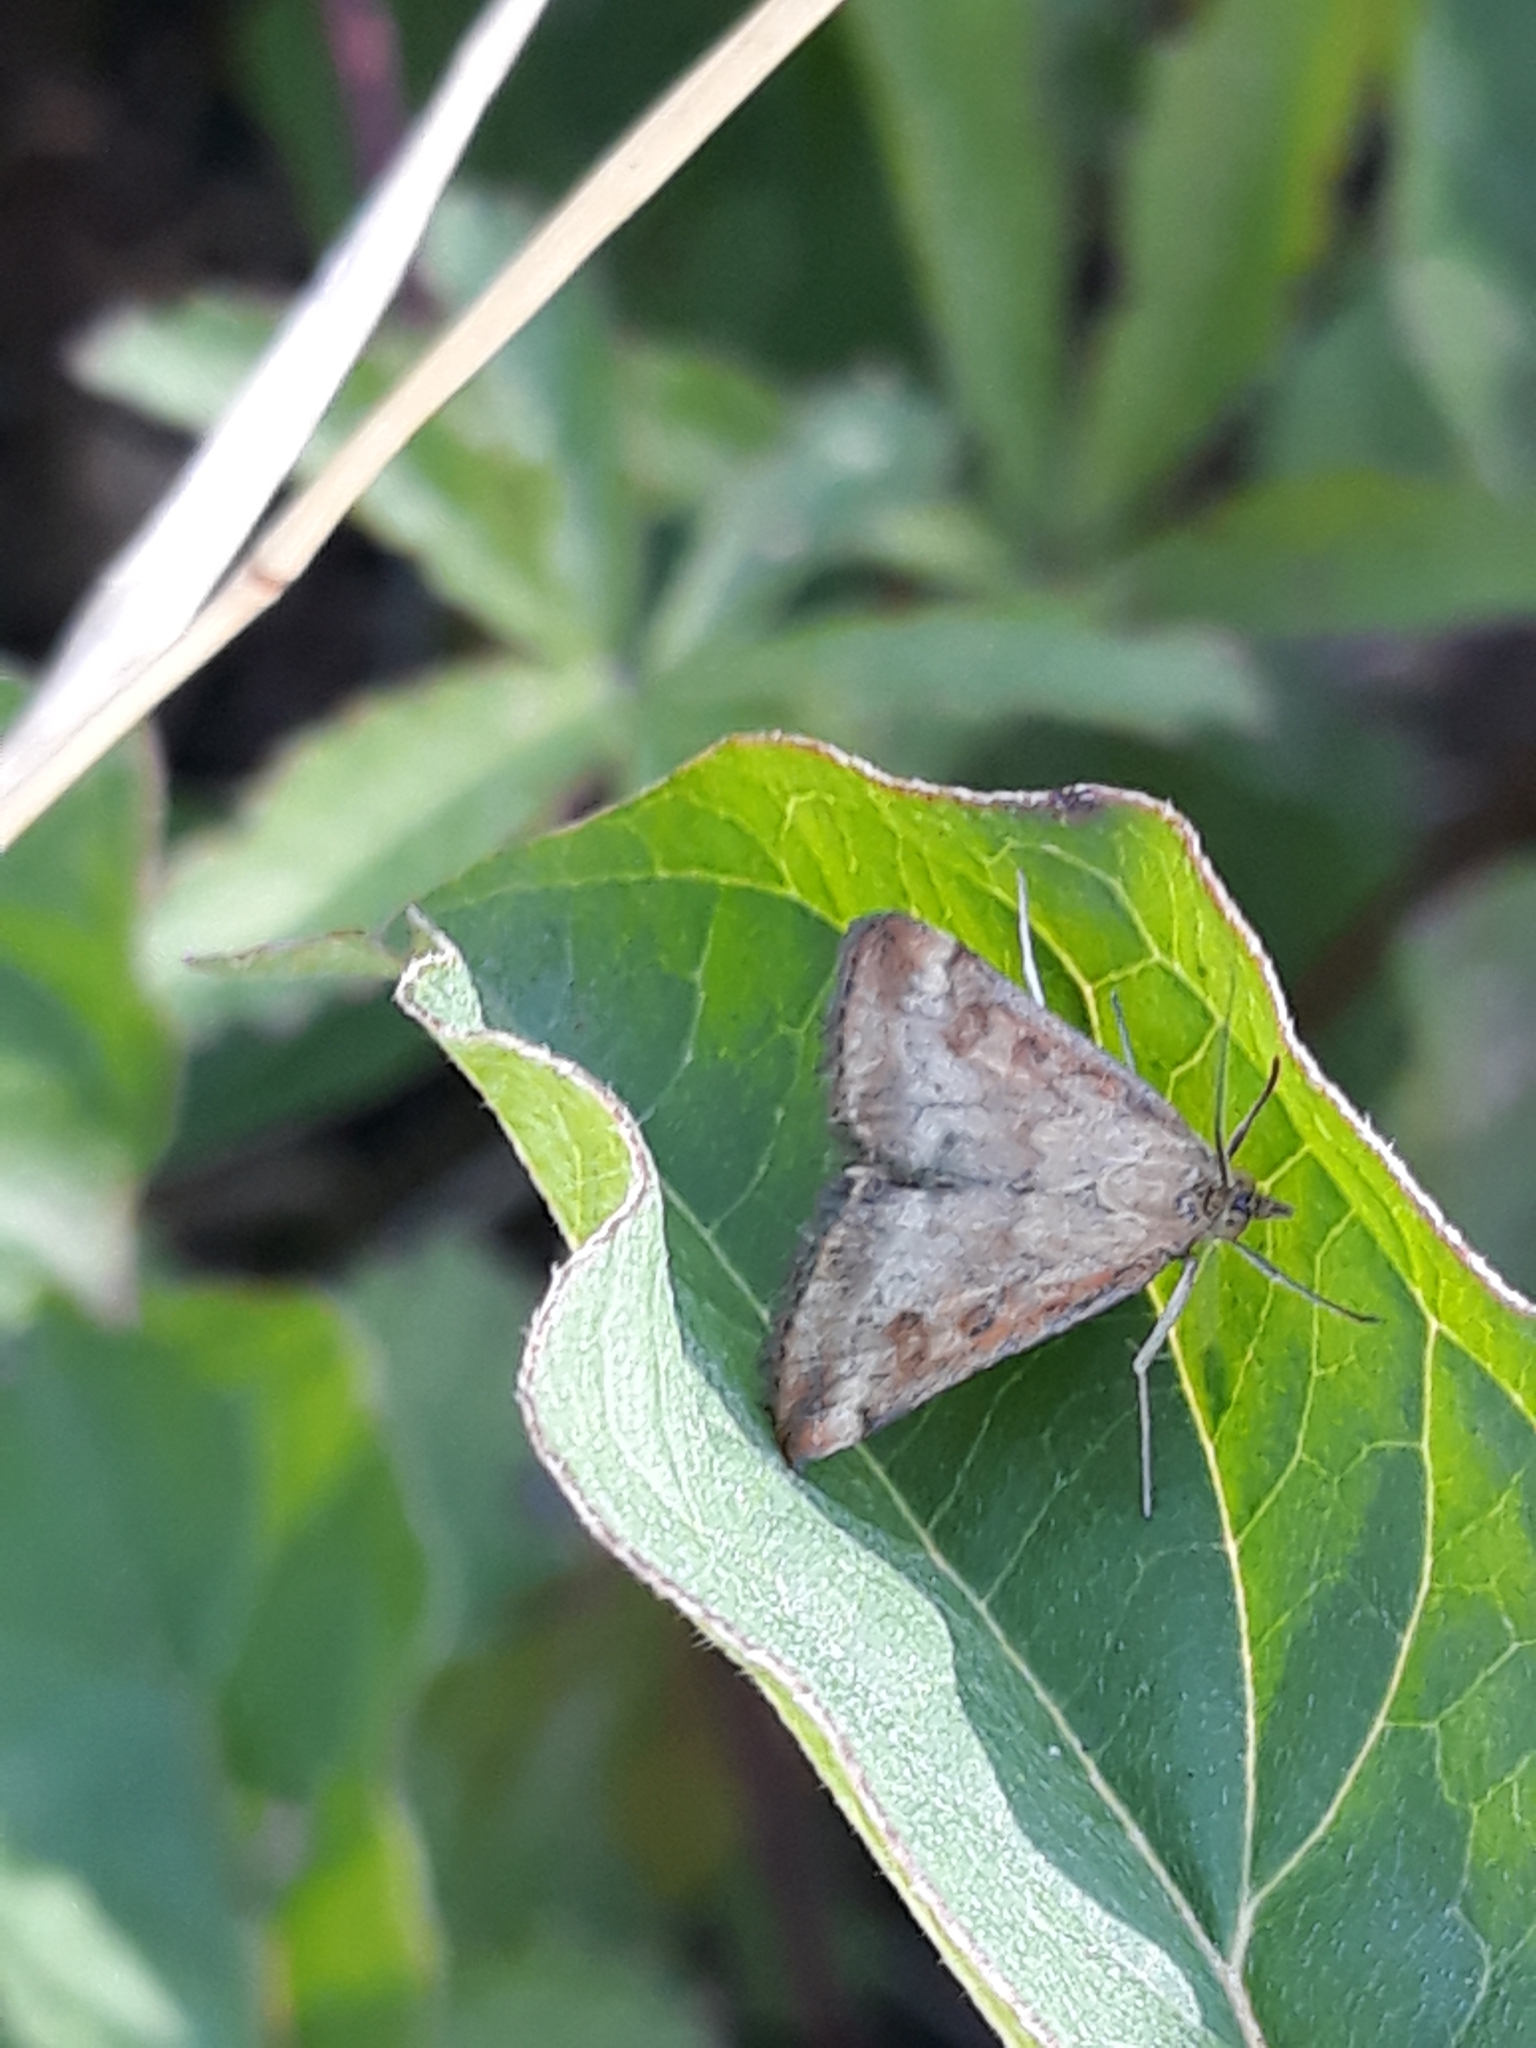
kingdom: Animalia
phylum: Arthropoda
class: Insecta
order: Lepidoptera
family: Crambidae
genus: Pyrausta
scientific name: Pyrausta despicata
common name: Straw-barred pearl
